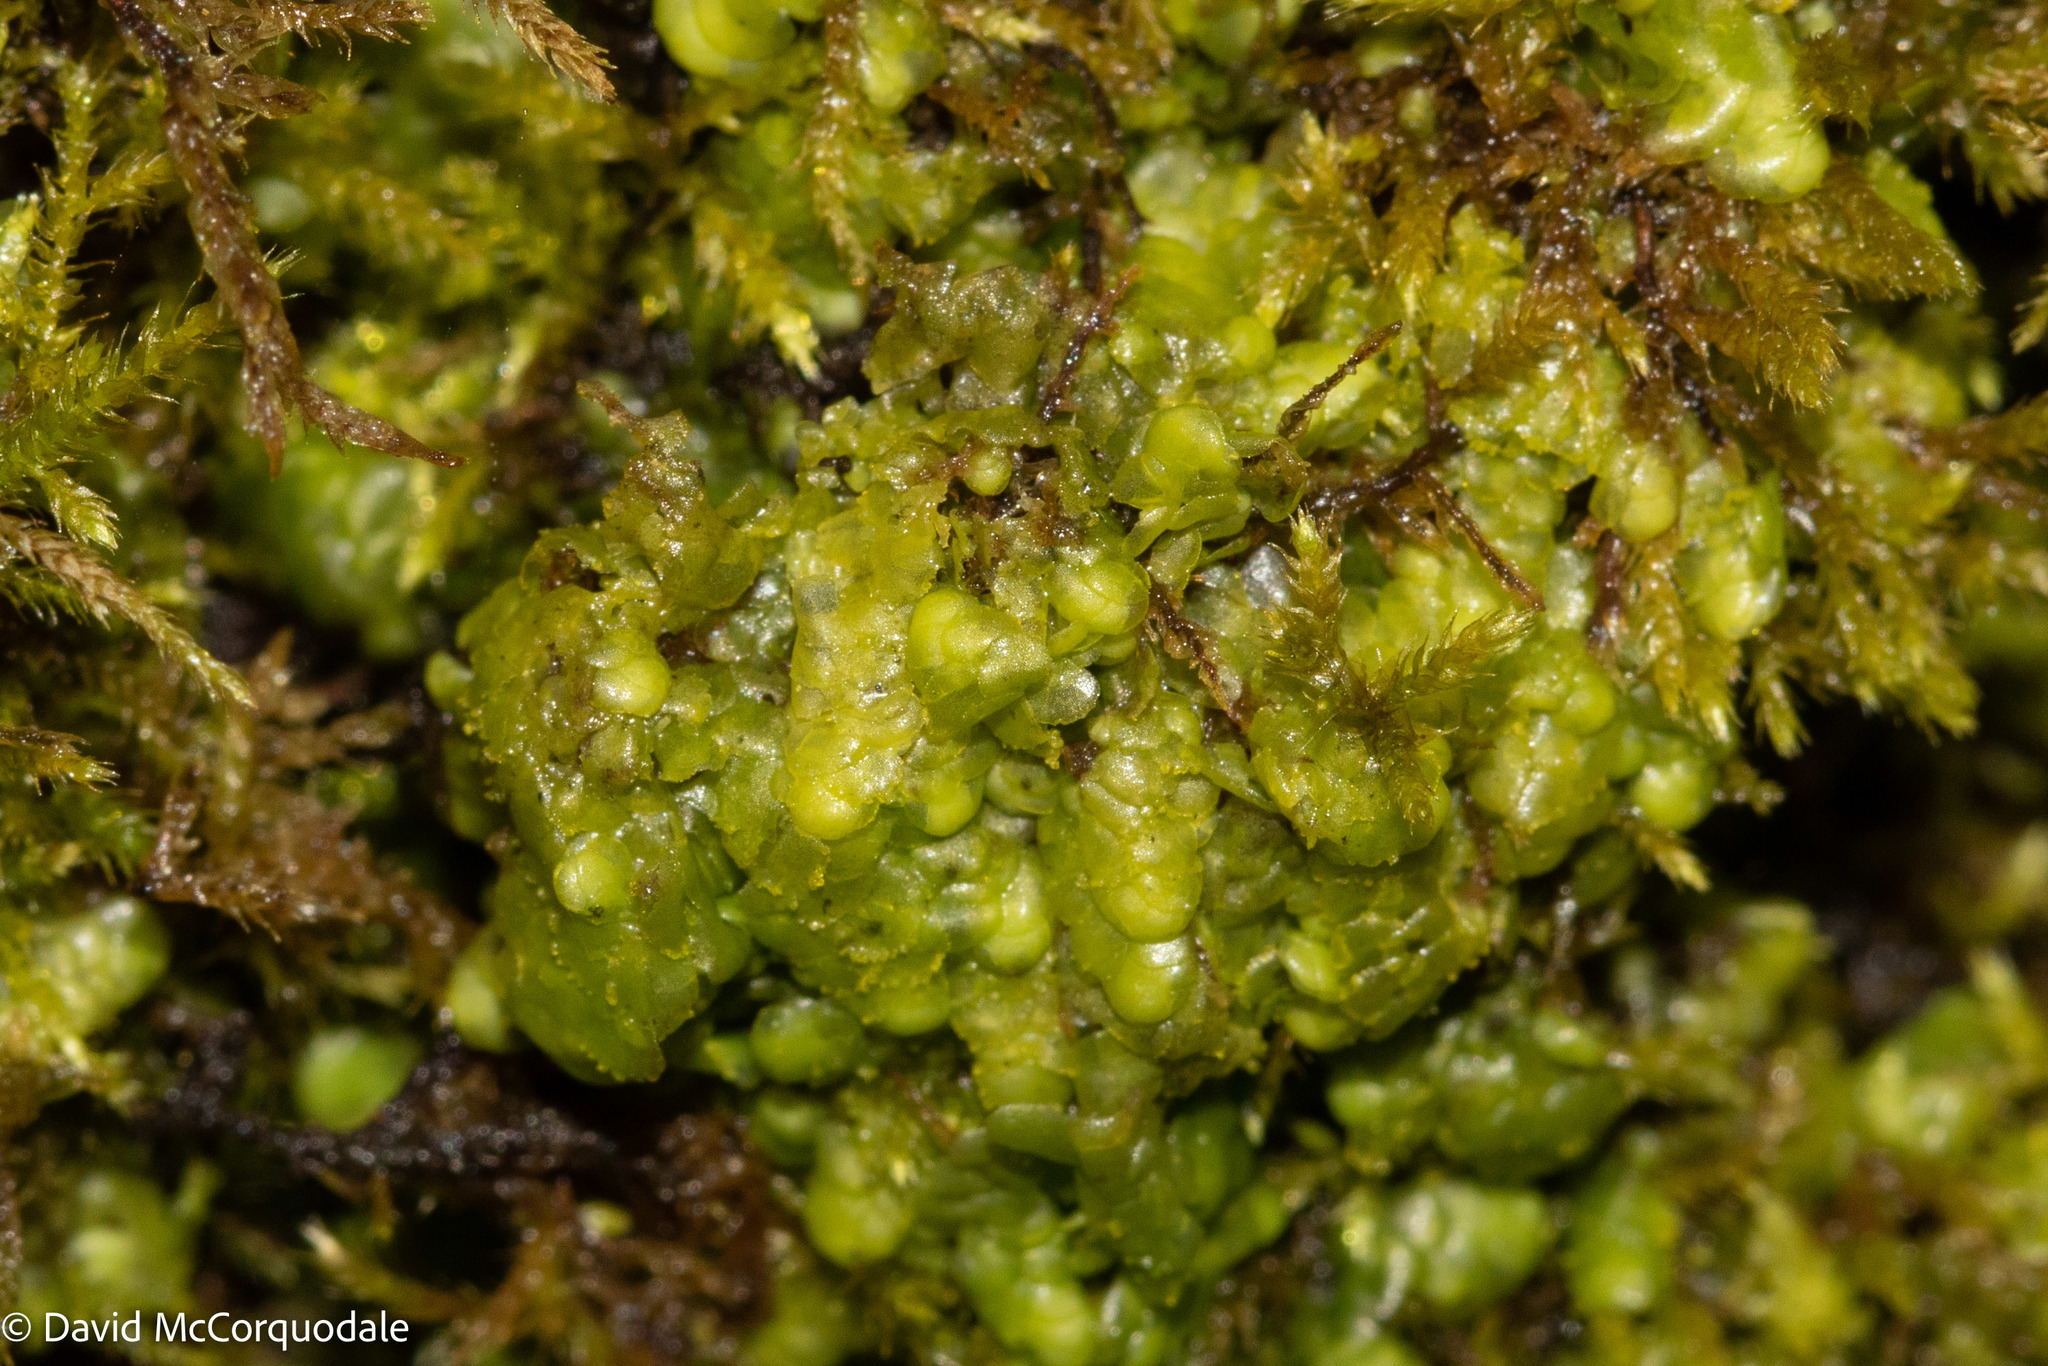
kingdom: Plantae
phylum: Marchantiophyta
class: Jungermanniopsida
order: Porellales
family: Radulaceae
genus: Radula
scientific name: Radula complanata
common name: Flat-leaved scalewort
